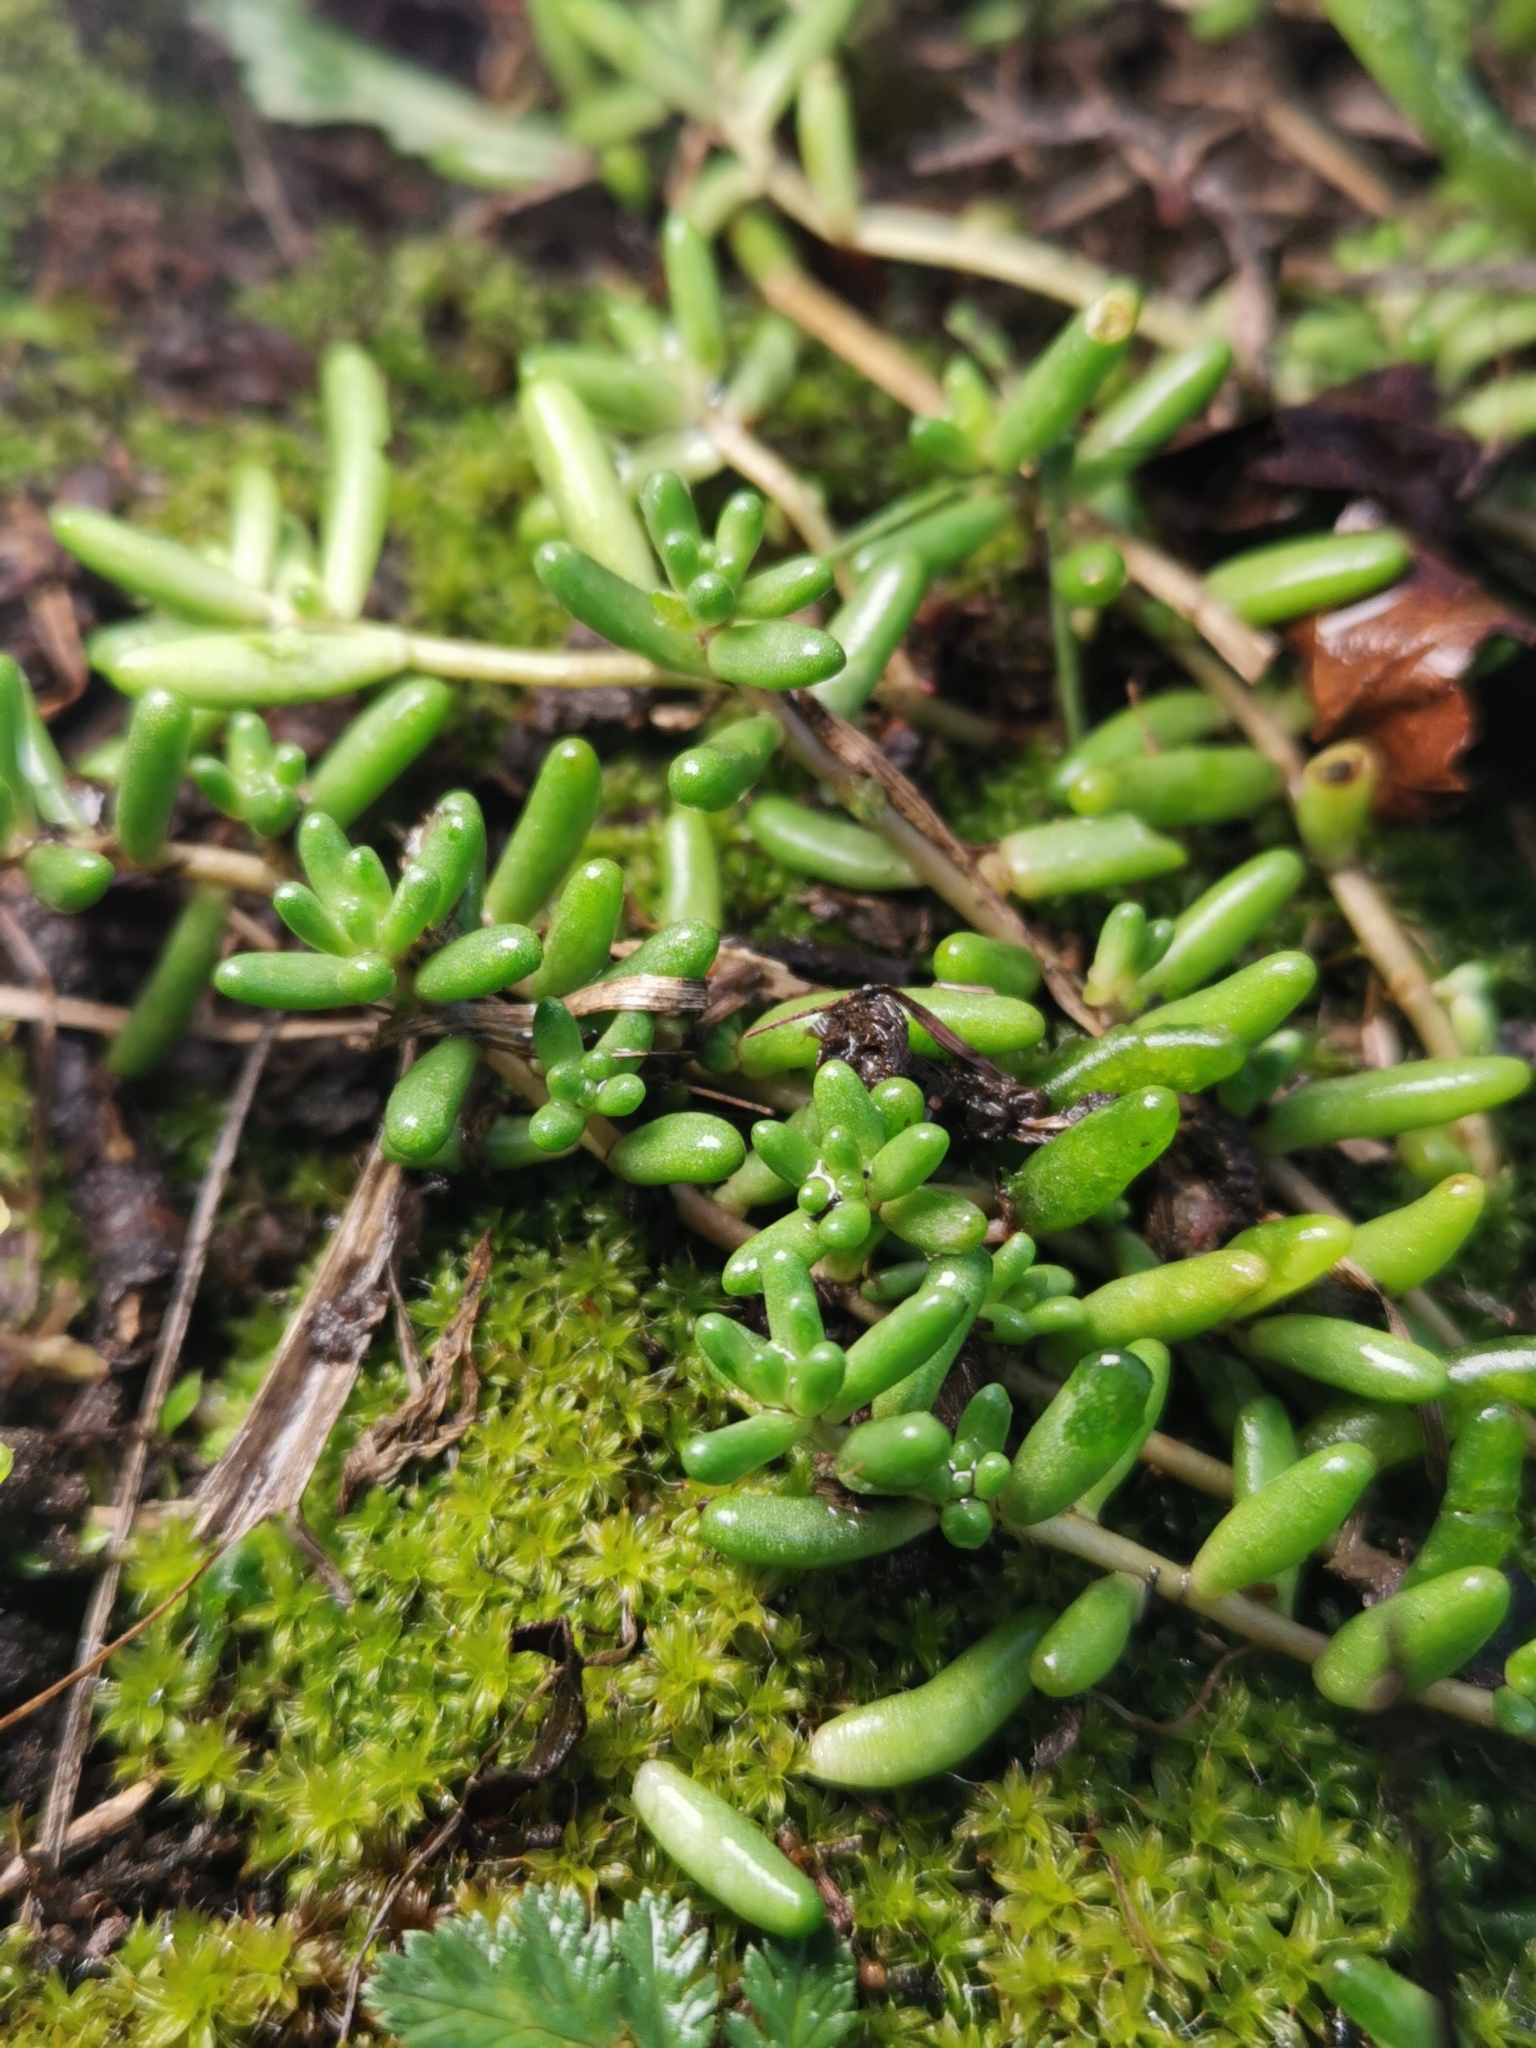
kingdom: Plantae
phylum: Tracheophyta
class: Magnoliopsida
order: Saxifragales
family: Crassulaceae
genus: Sedum
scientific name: Sedum album
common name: White stonecrop
